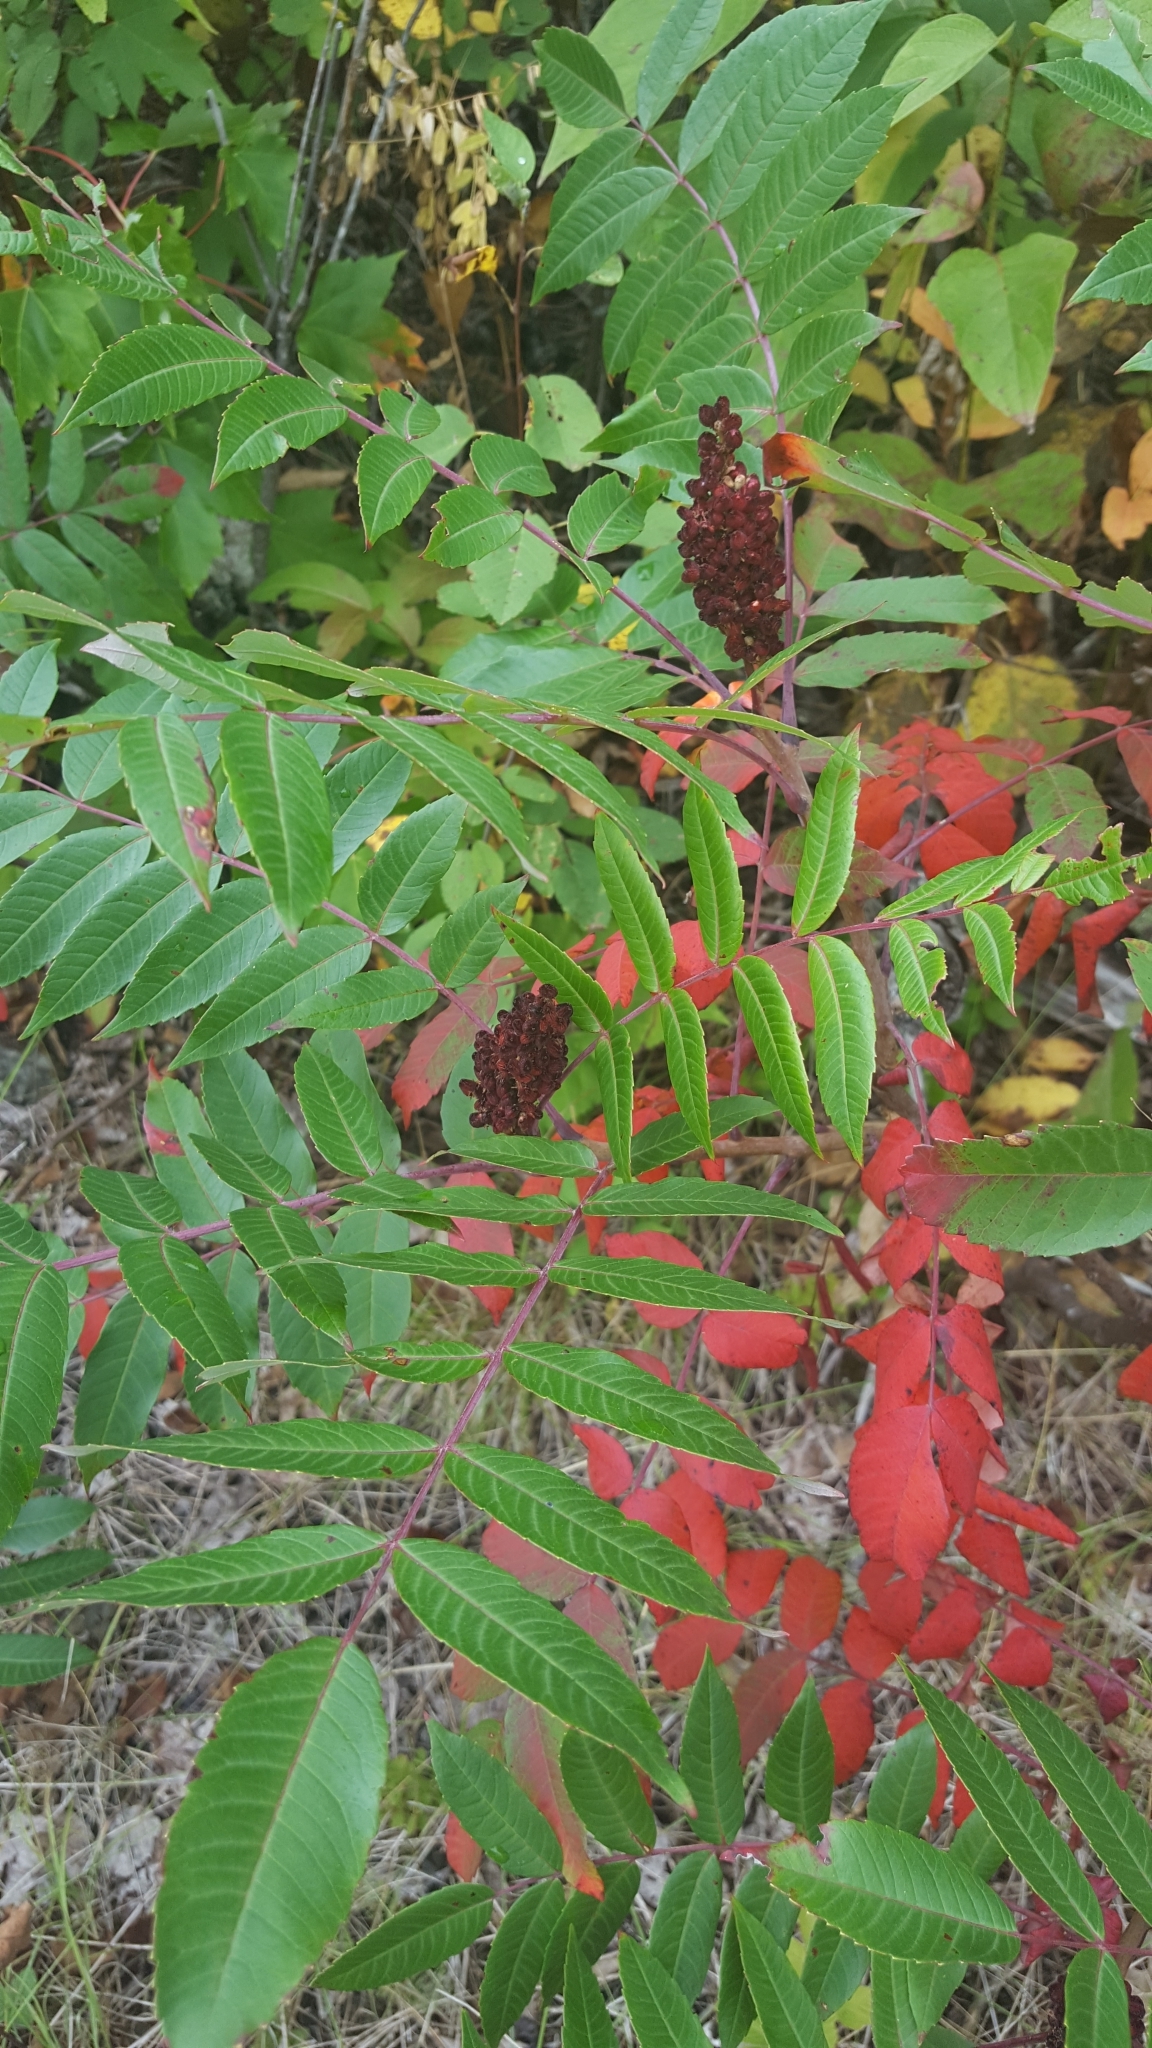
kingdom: Plantae
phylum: Tracheophyta
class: Magnoliopsida
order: Sapindales
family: Anacardiaceae
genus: Rhus
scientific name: Rhus glabra
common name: Scarlet sumac
